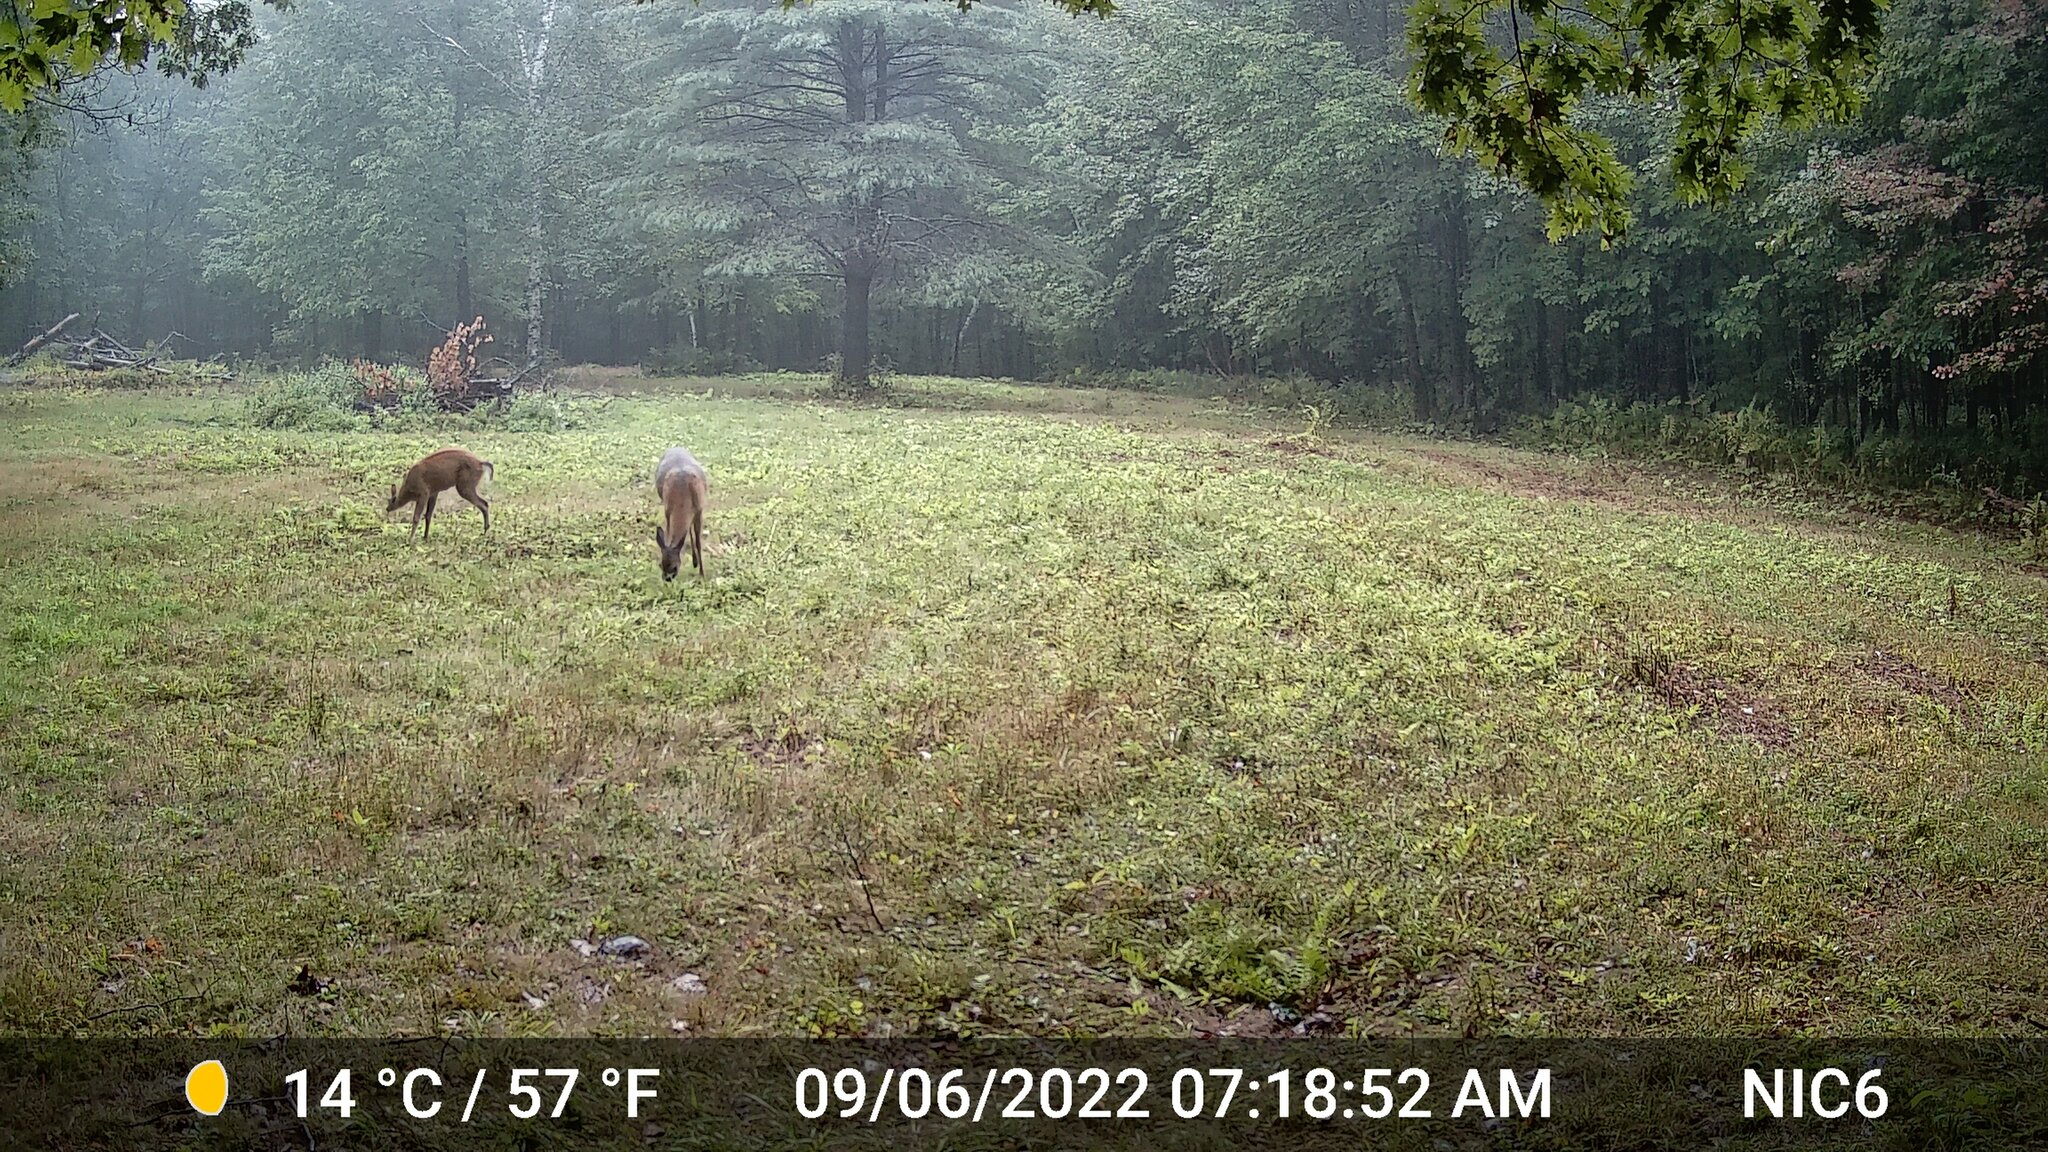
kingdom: Animalia
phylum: Chordata
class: Mammalia
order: Artiodactyla
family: Cervidae
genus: Odocoileus
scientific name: Odocoileus virginianus
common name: White-tailed deer
